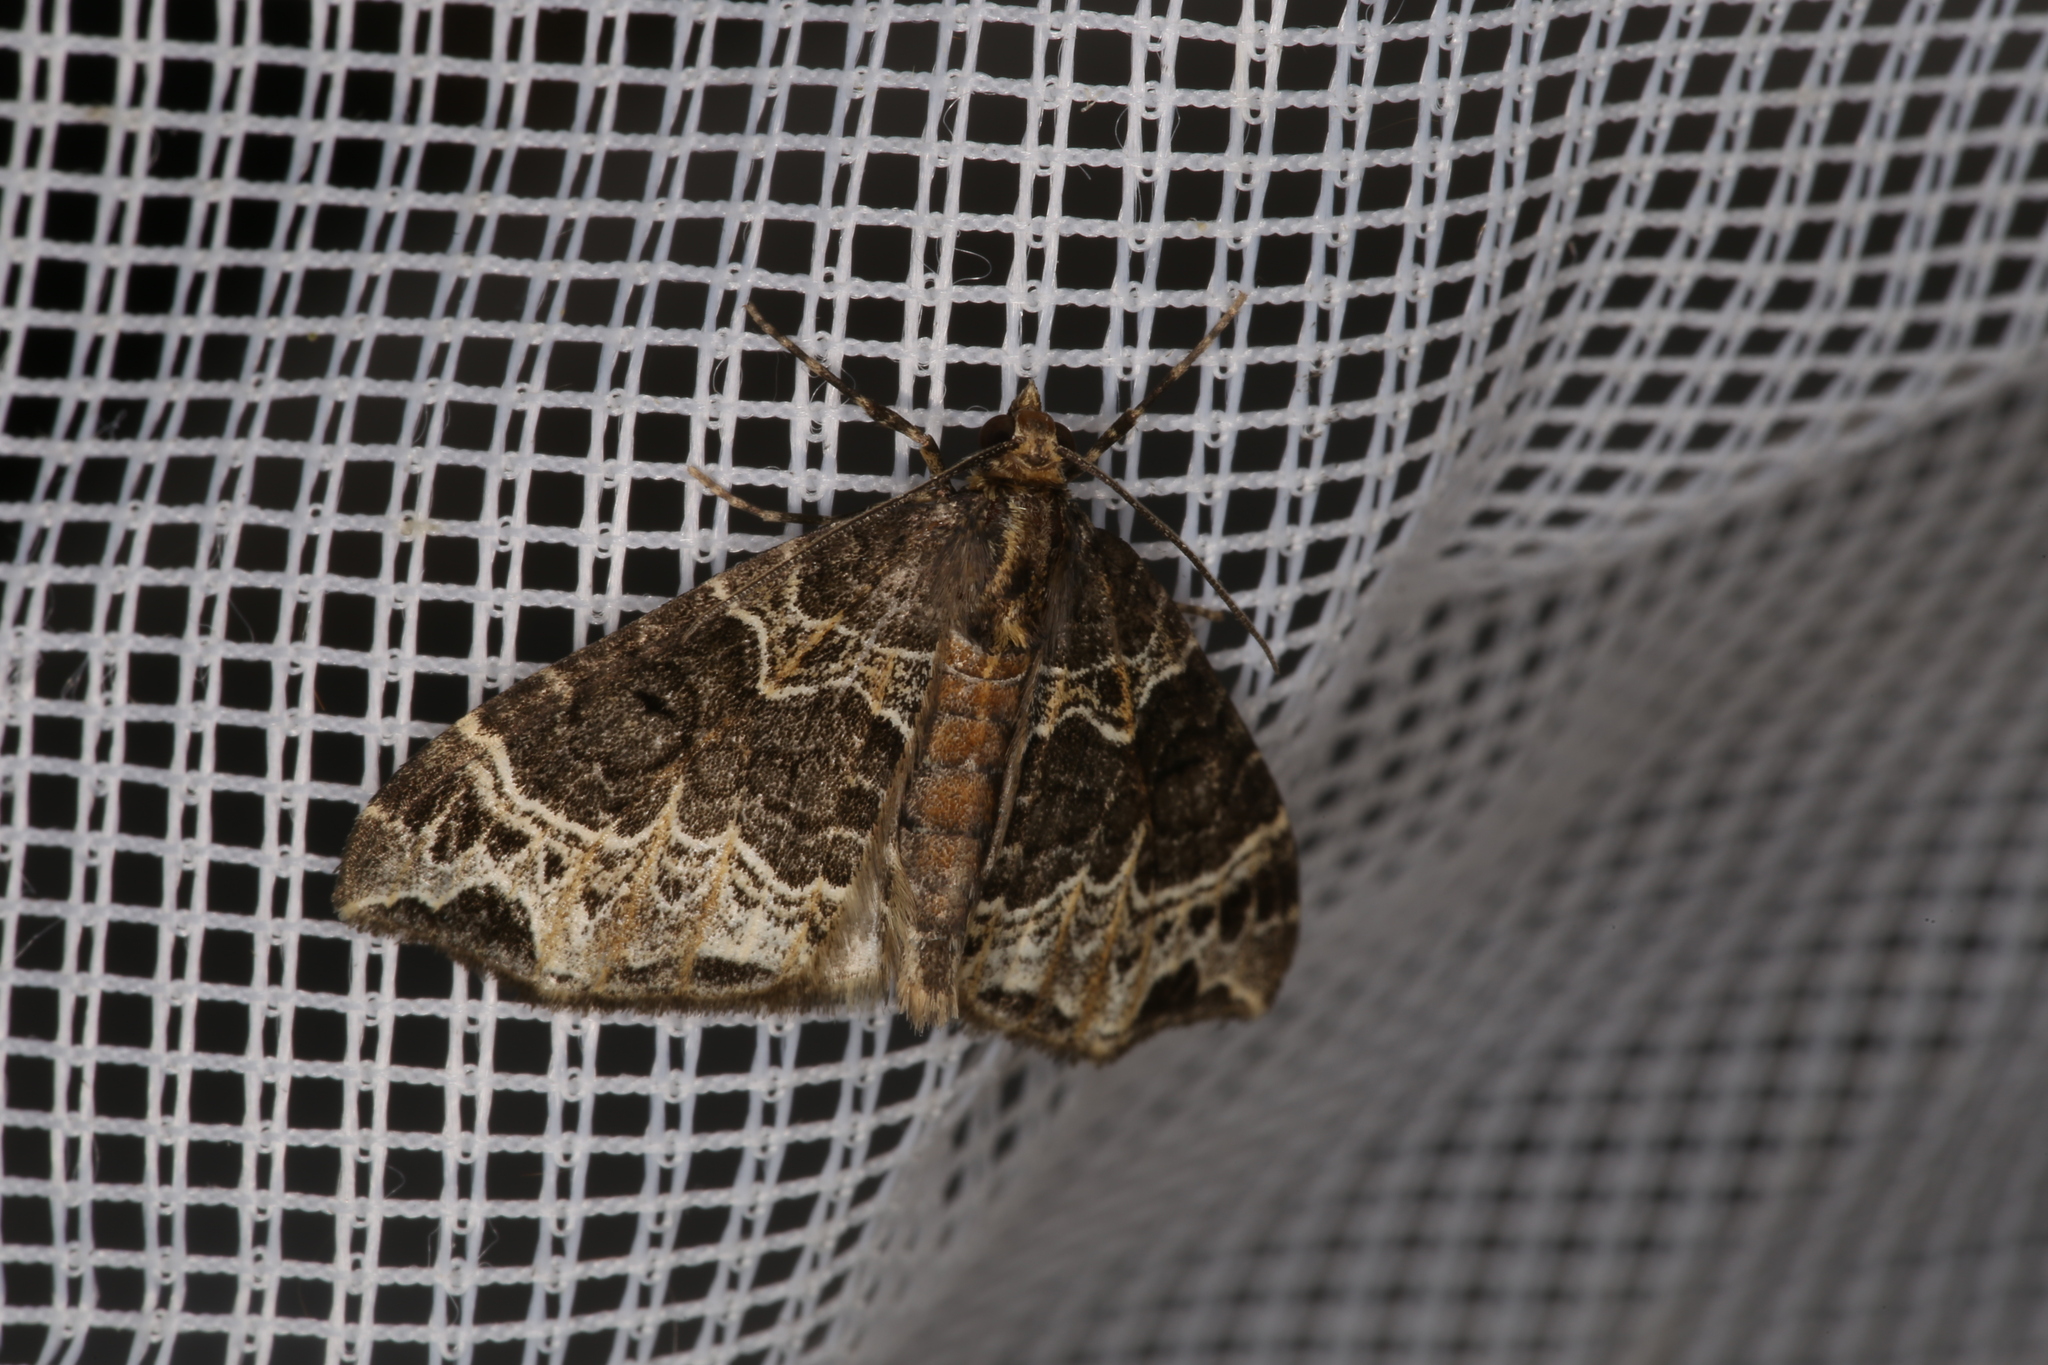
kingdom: Animalia
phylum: Arthropoda
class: Insecta
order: Lepidoptera
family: Geometridae
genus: Ecliptopera
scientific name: Ecliptopera silaceata
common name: Small phoenix
